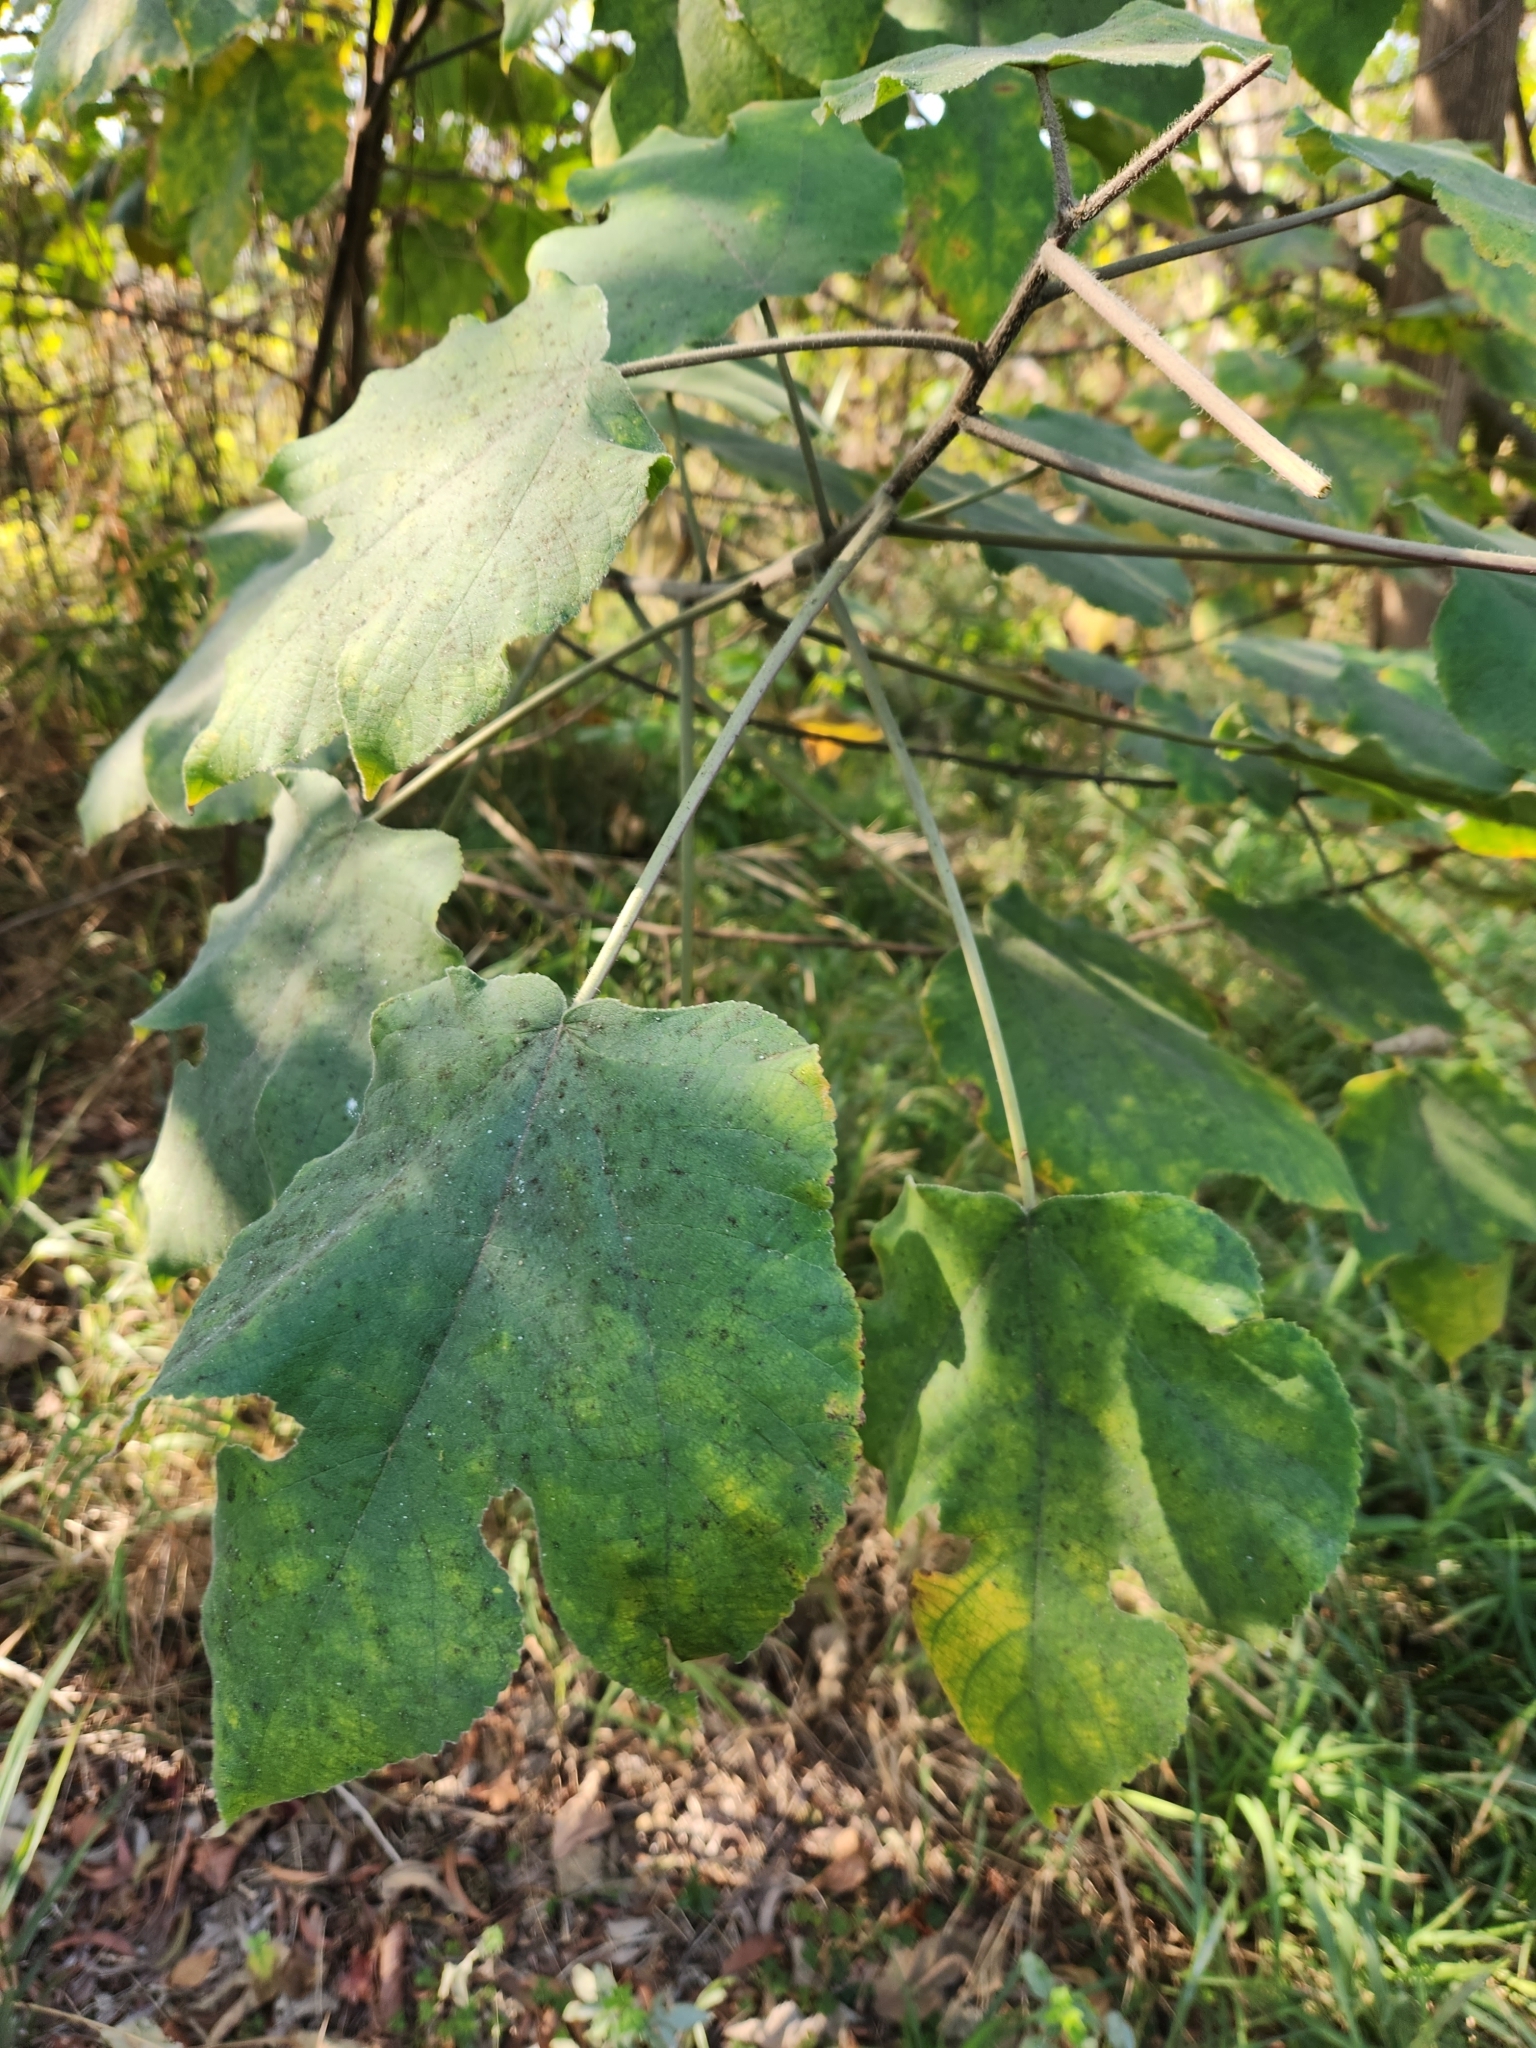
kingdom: Plantae
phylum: Tracheophyta
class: Magnoliopsida
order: Rosales
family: Moraceae
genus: Broussonetia
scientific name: Broussonetia papyrifera
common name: Paper mulberry
